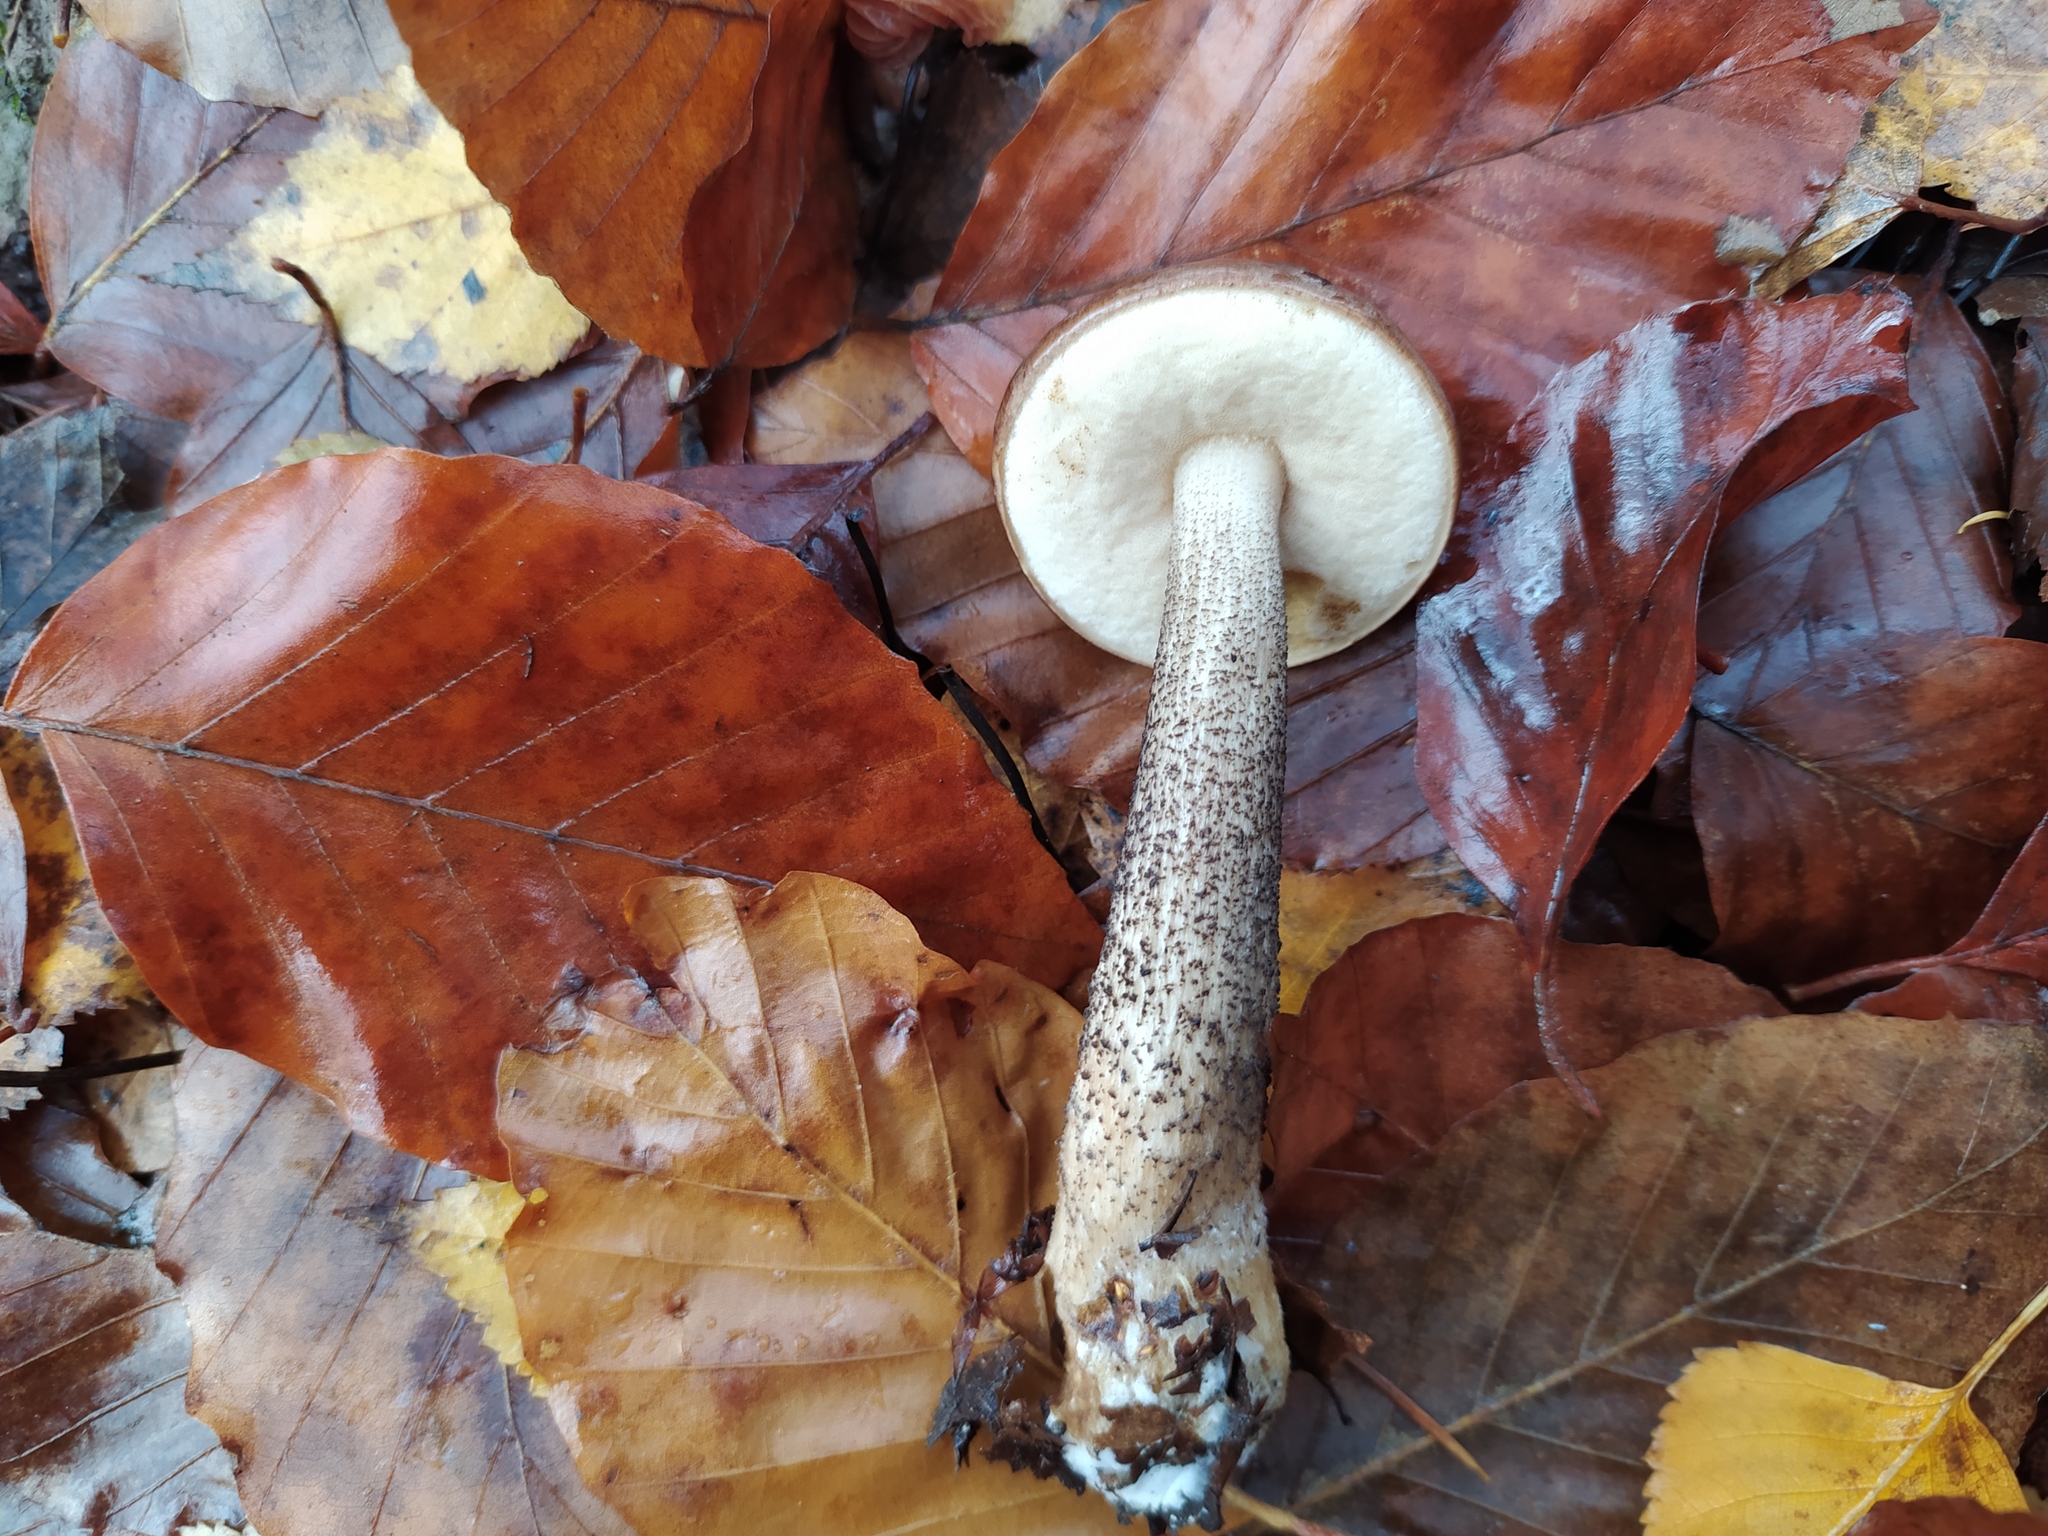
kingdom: Fungi
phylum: Basidiomycota
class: Agaricomycetes
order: Boletales
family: Boletaceae
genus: Leccinum
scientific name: Leccinum scabrum
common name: Blushing bolete
